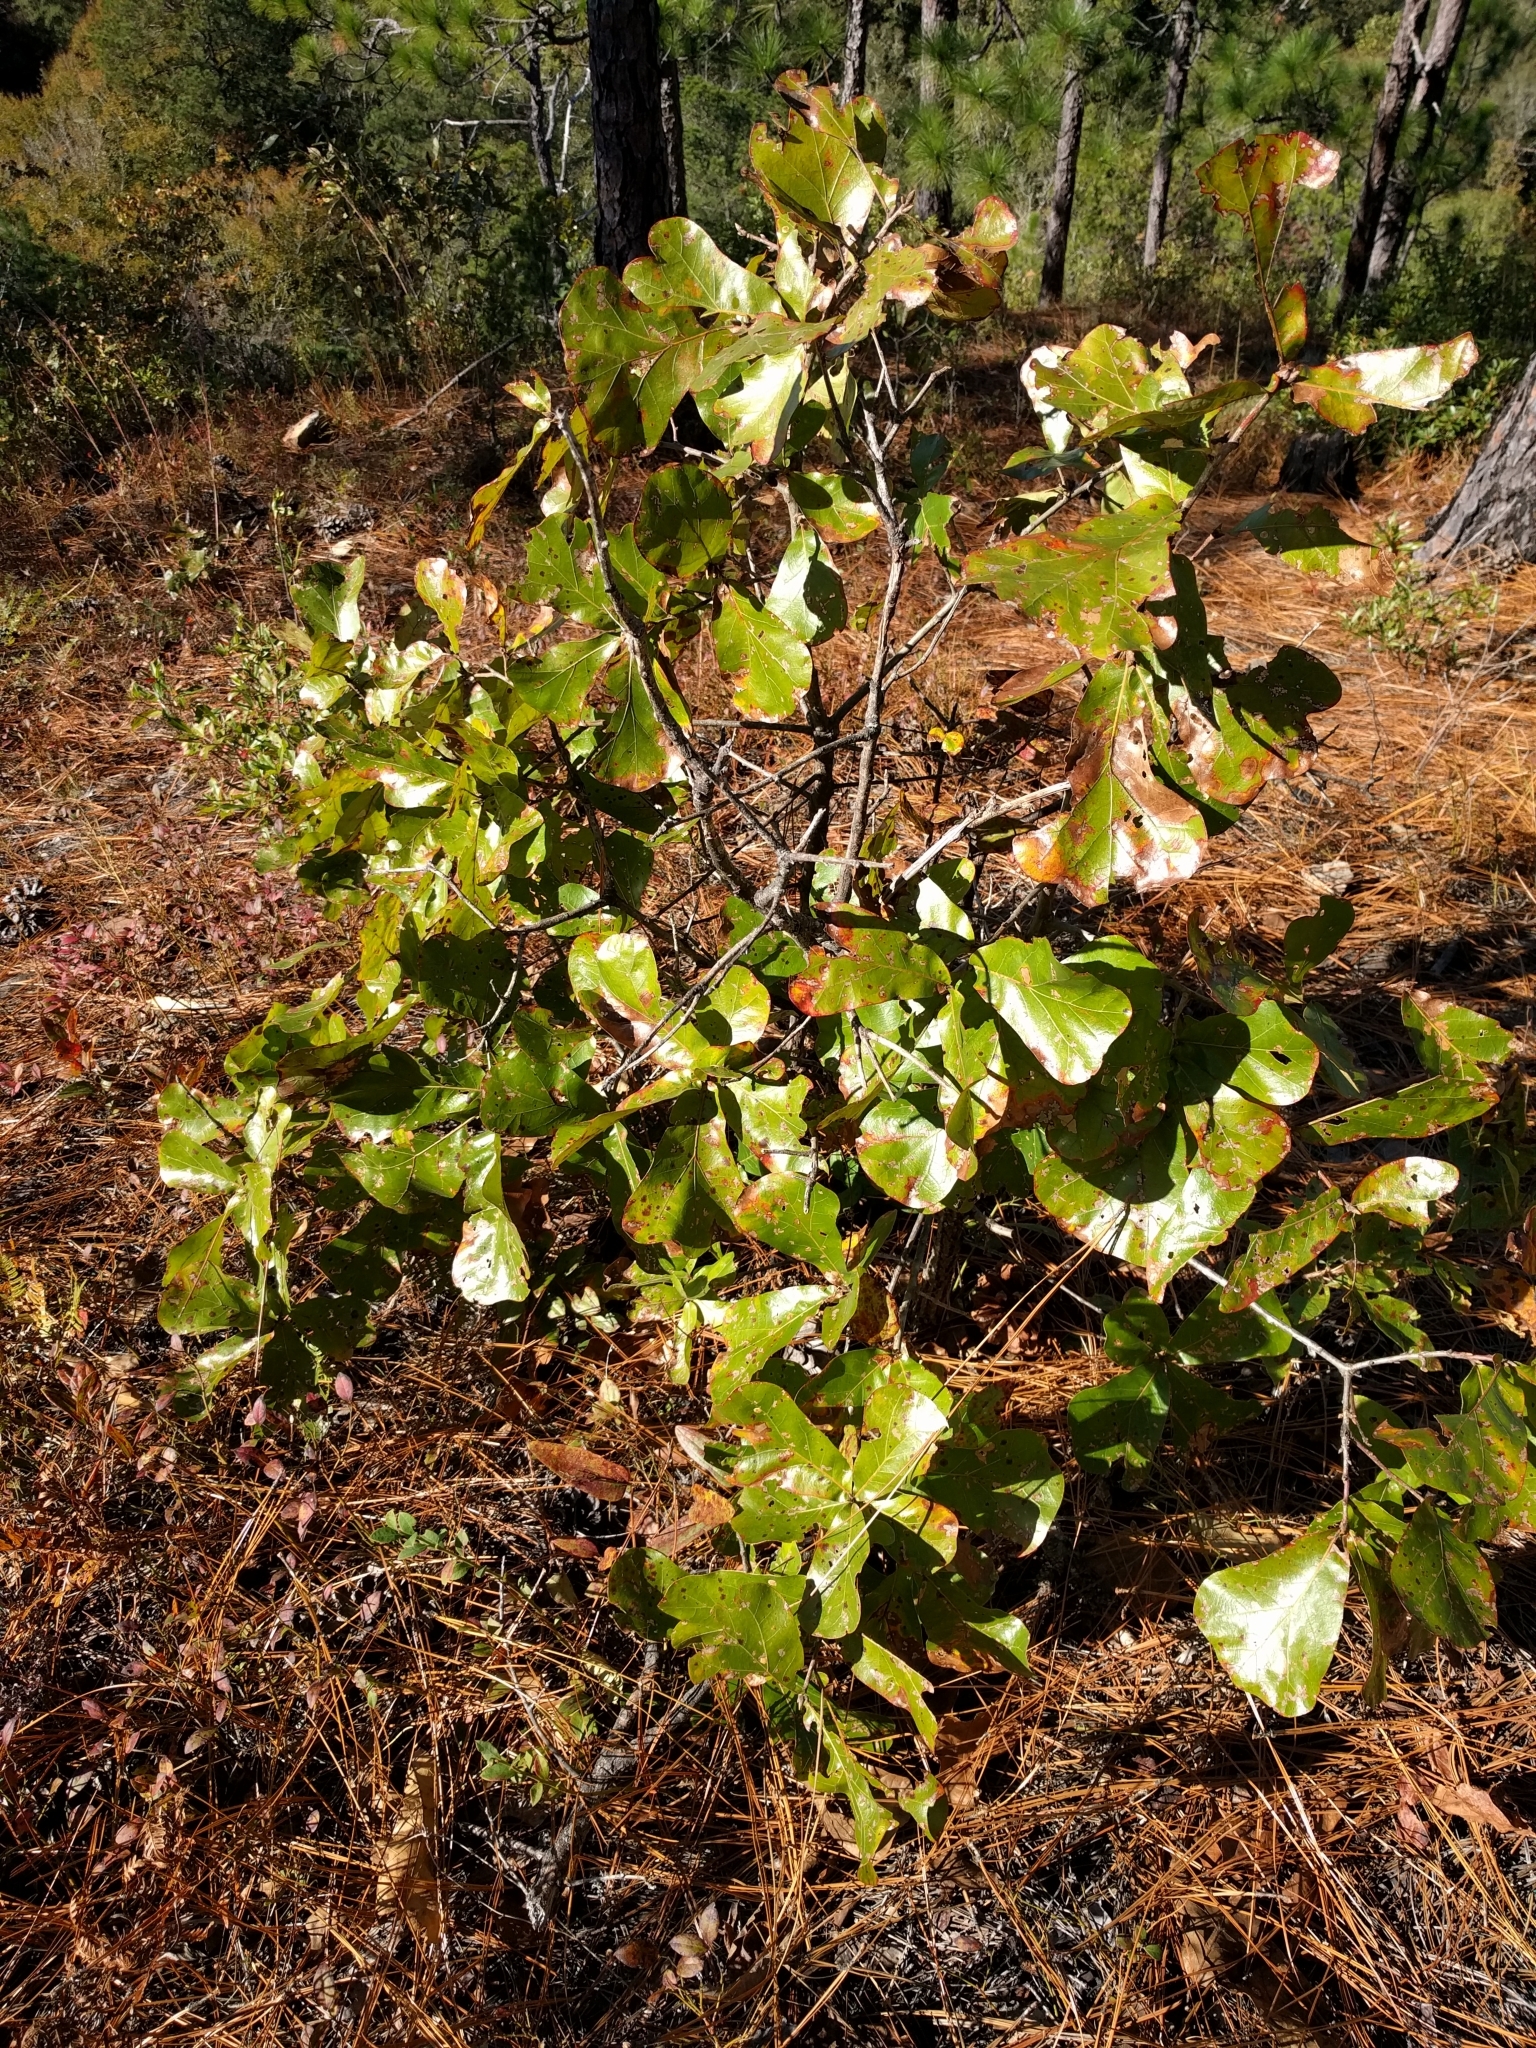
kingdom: Plantae
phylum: Tracheophyta
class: Magnoliopsida
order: Fagales
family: Fagaceae
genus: Quercus
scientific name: Quercus marilandica
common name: Blackjack oak
